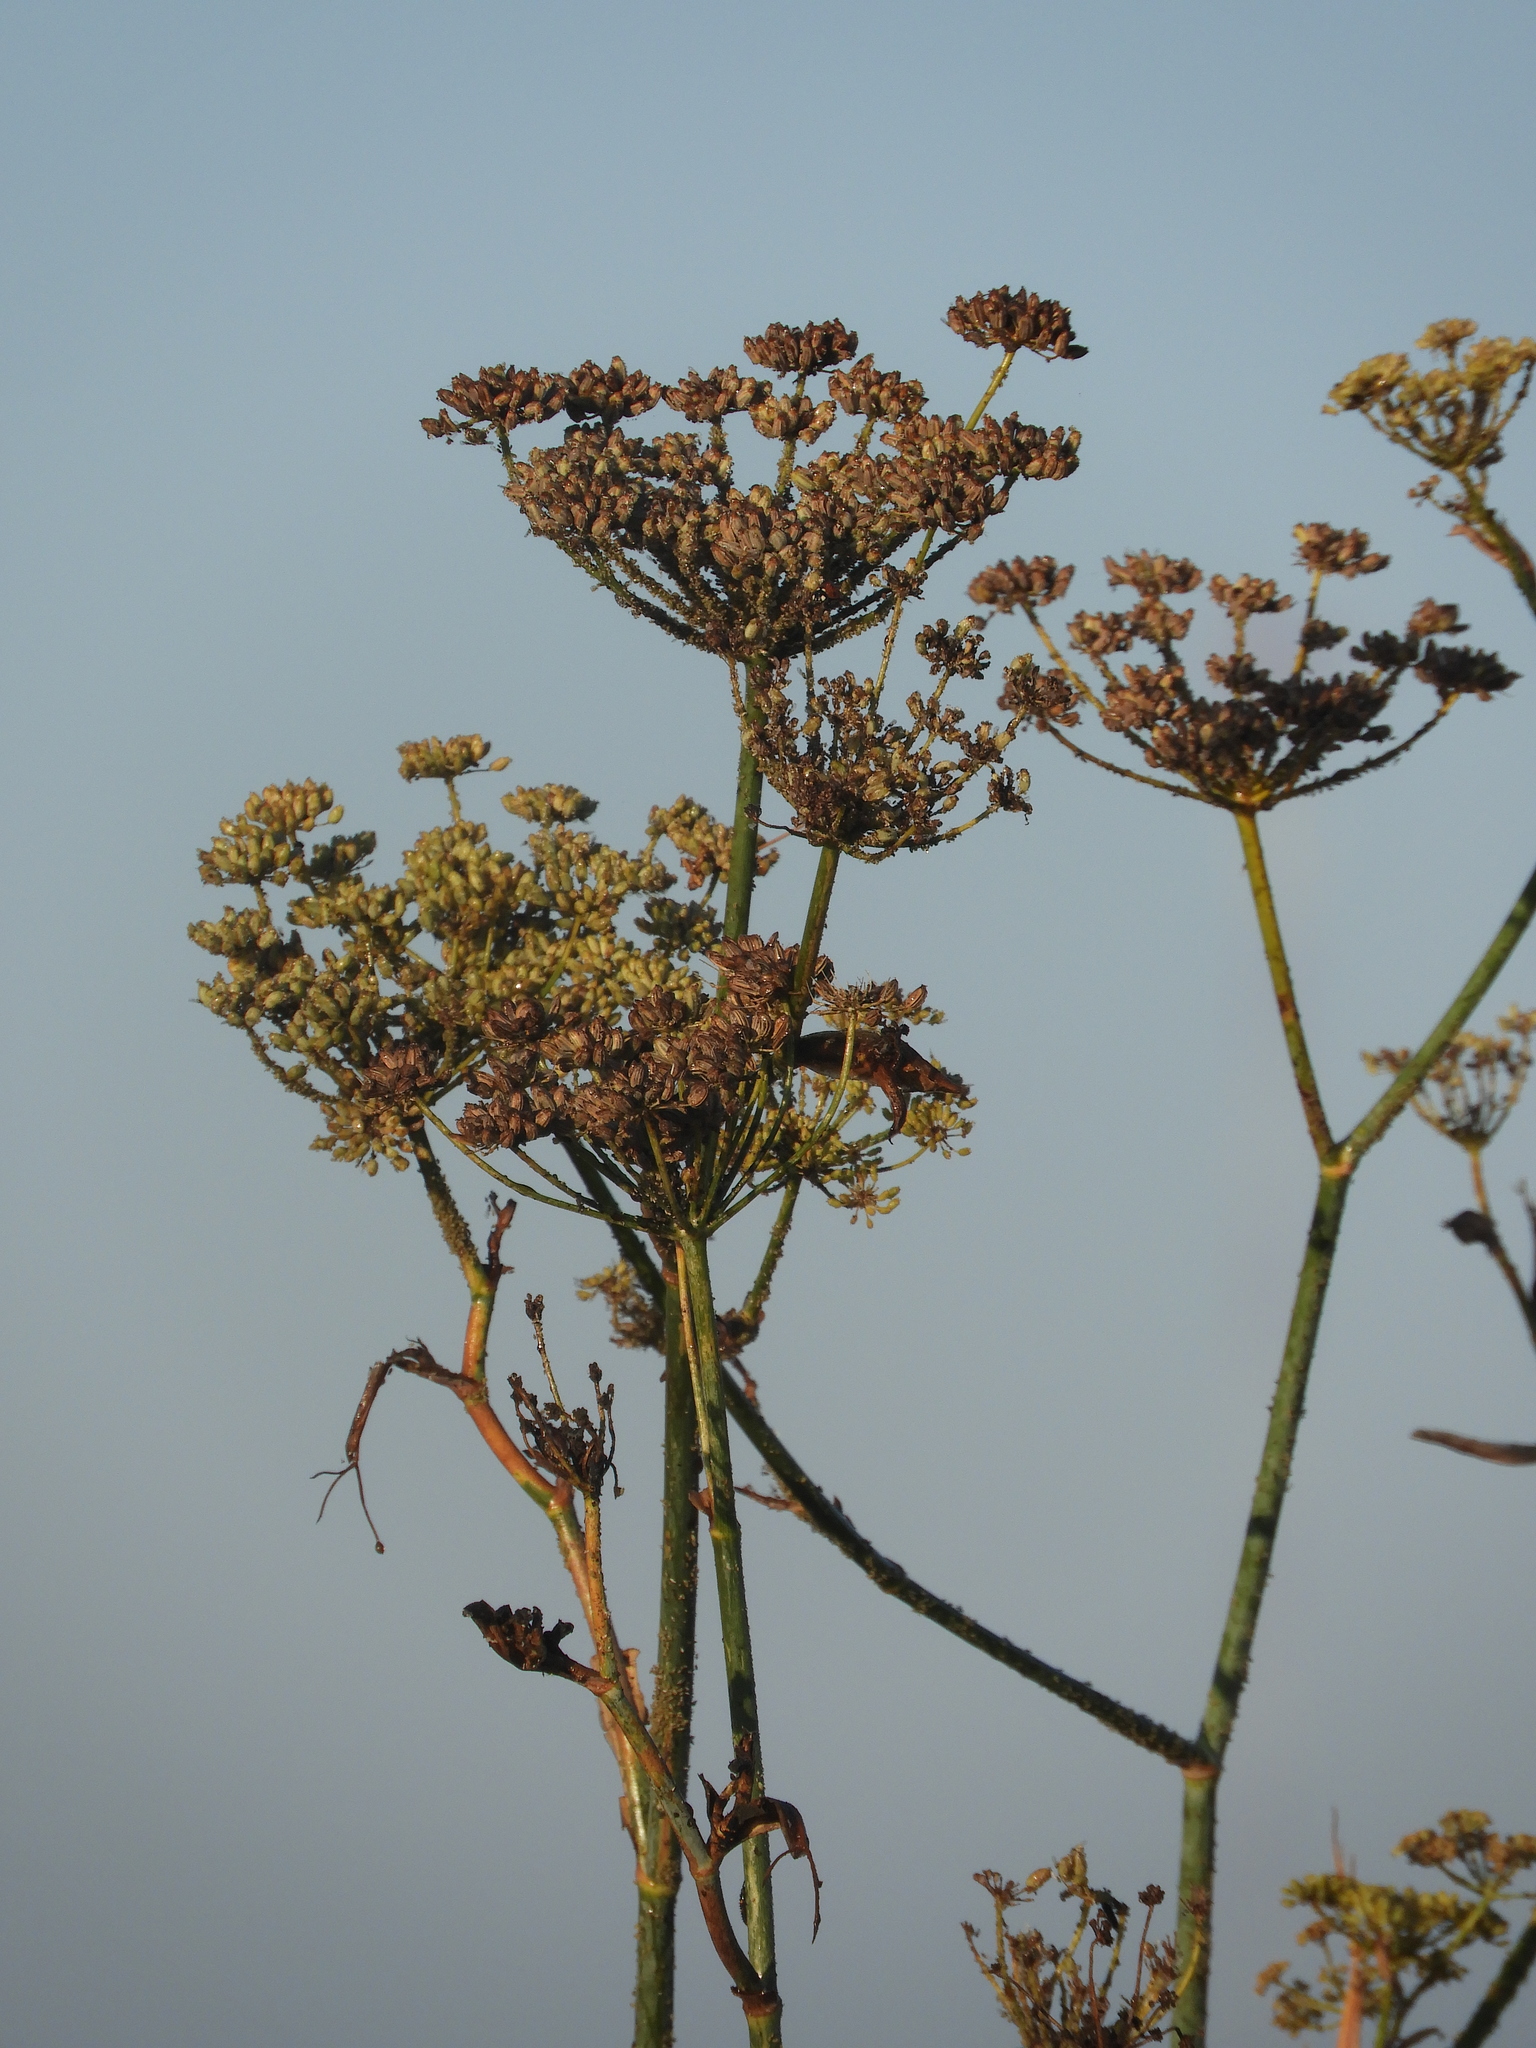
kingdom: Plantae
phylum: Tracheophyta
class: Magnoliopsida
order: Apiales
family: Apiaceae
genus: Foeniculum
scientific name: Foeniculum vulgare
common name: Fennel
